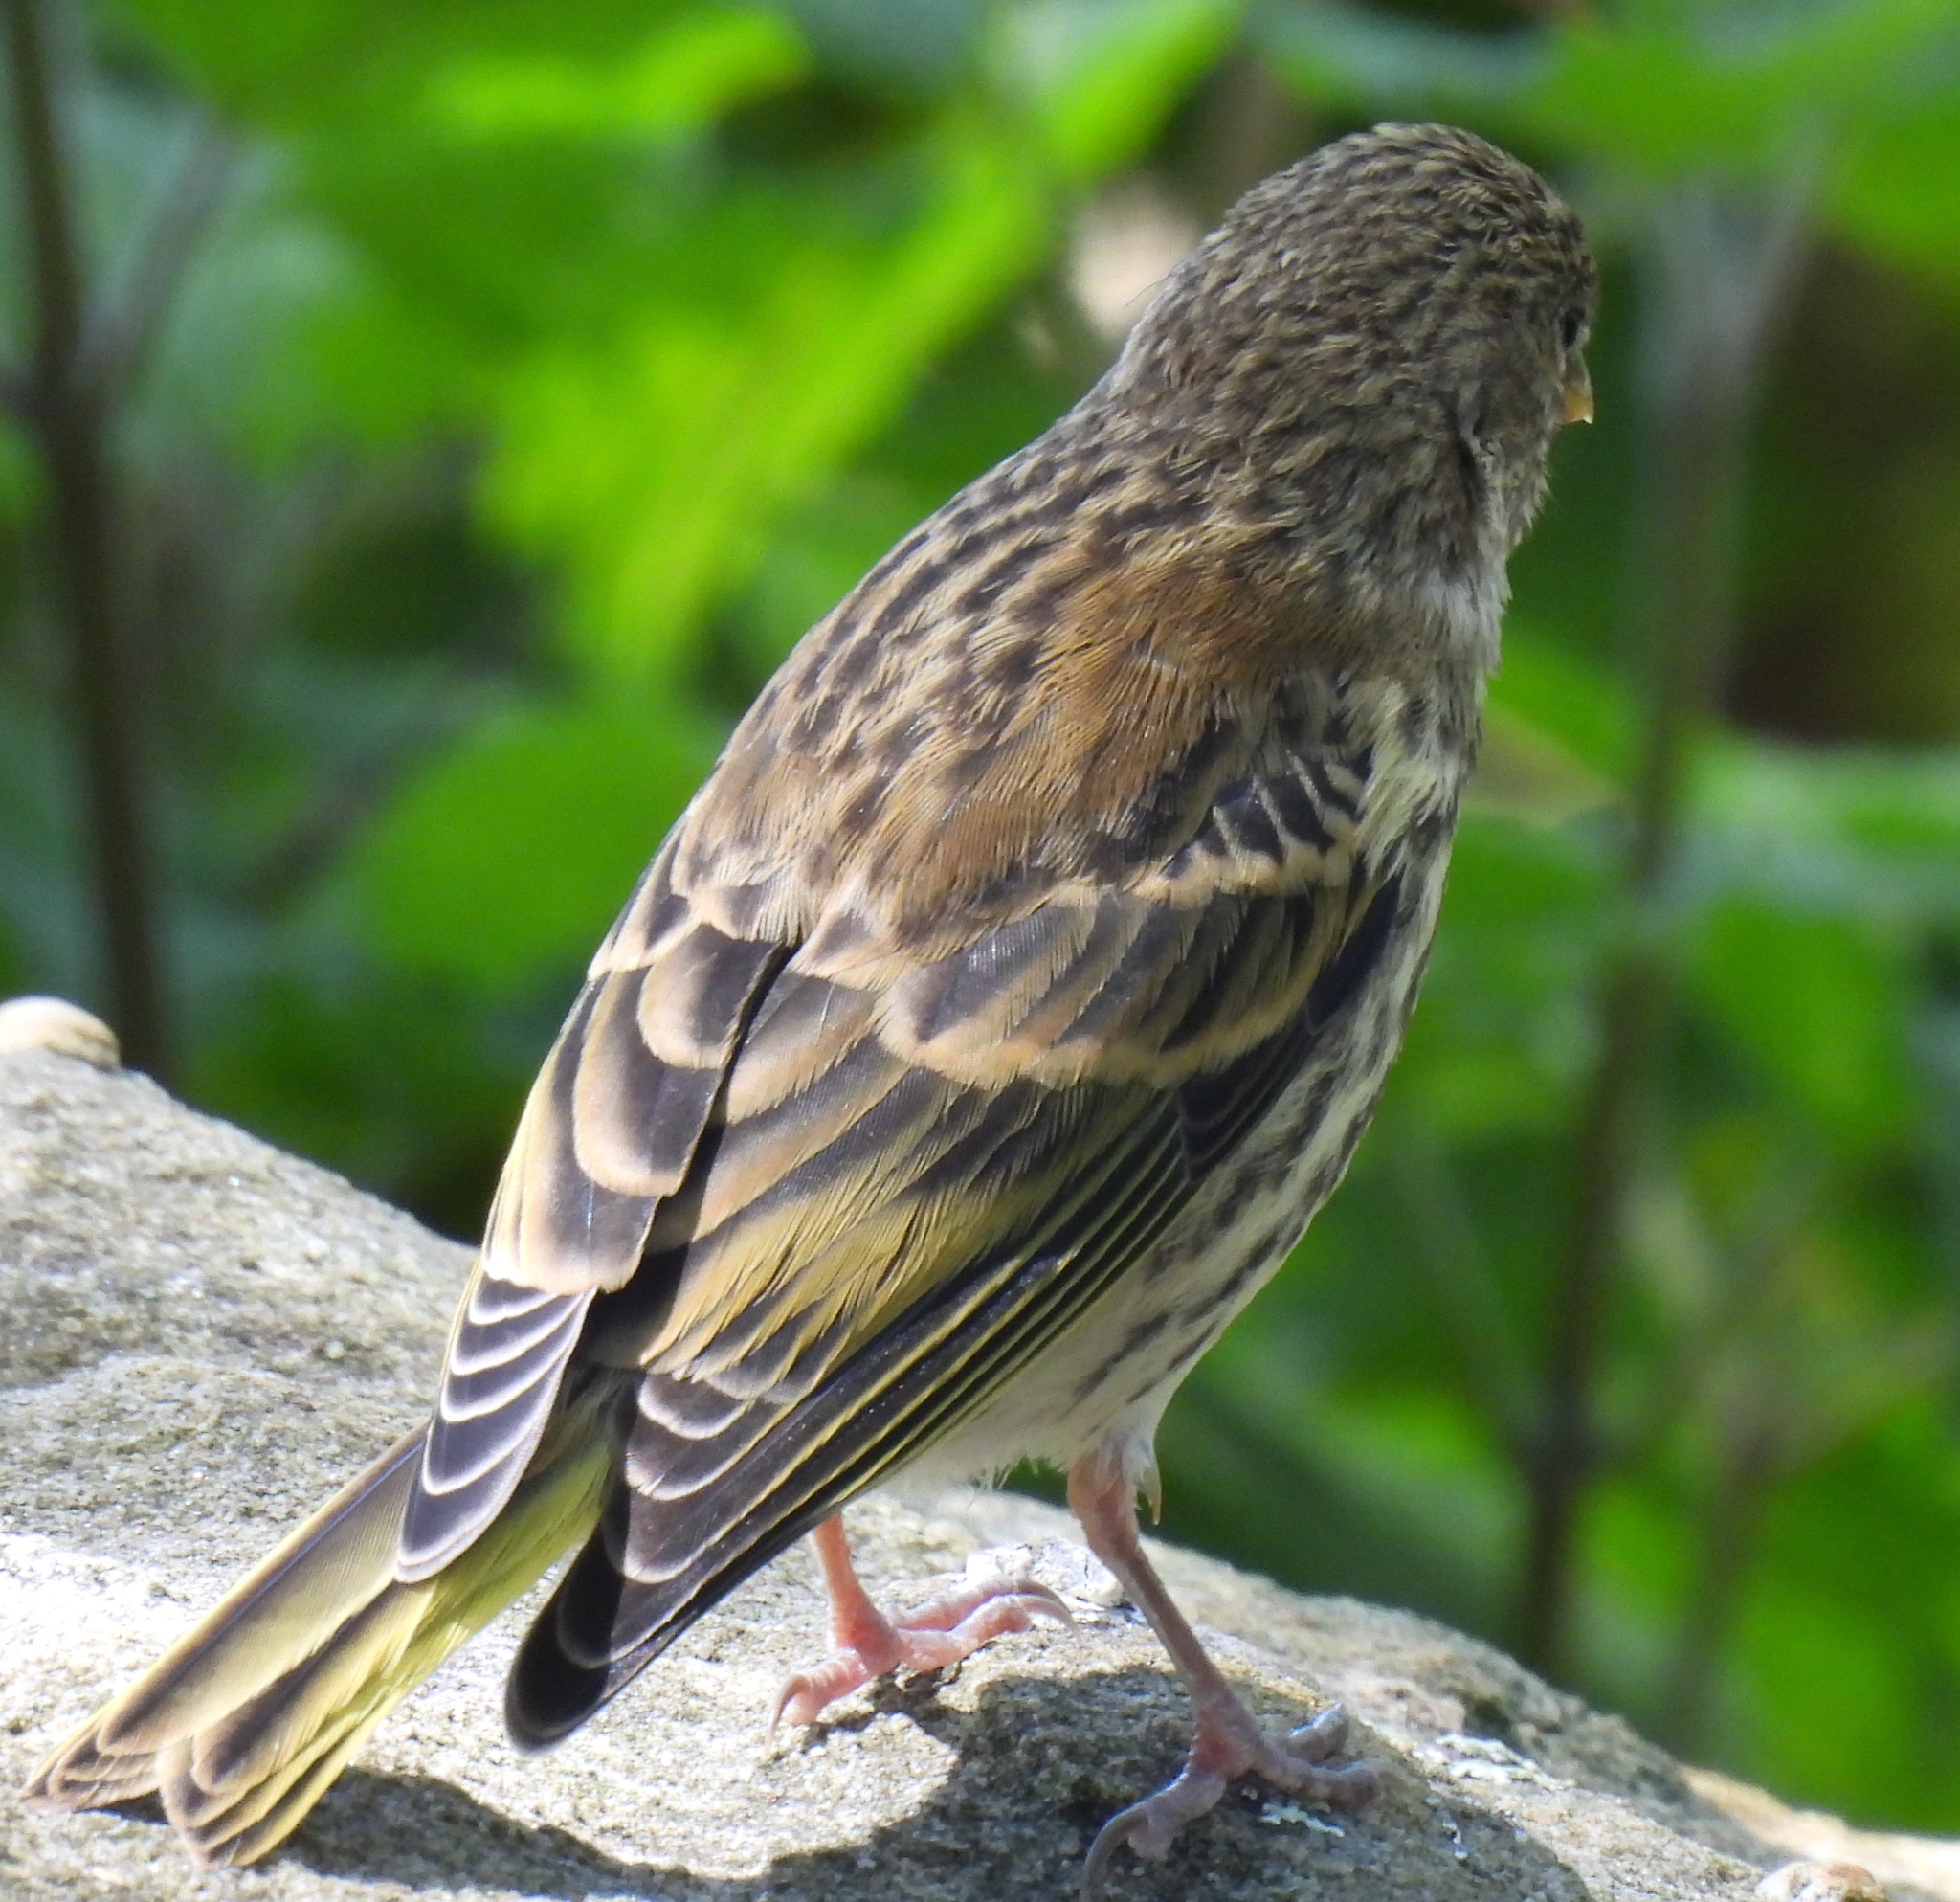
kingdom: Animalia
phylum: Chordata
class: Aves
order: Passeriformes
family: Fringillidae
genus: Serinus
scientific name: Serinus canicollis
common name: Cape canary
